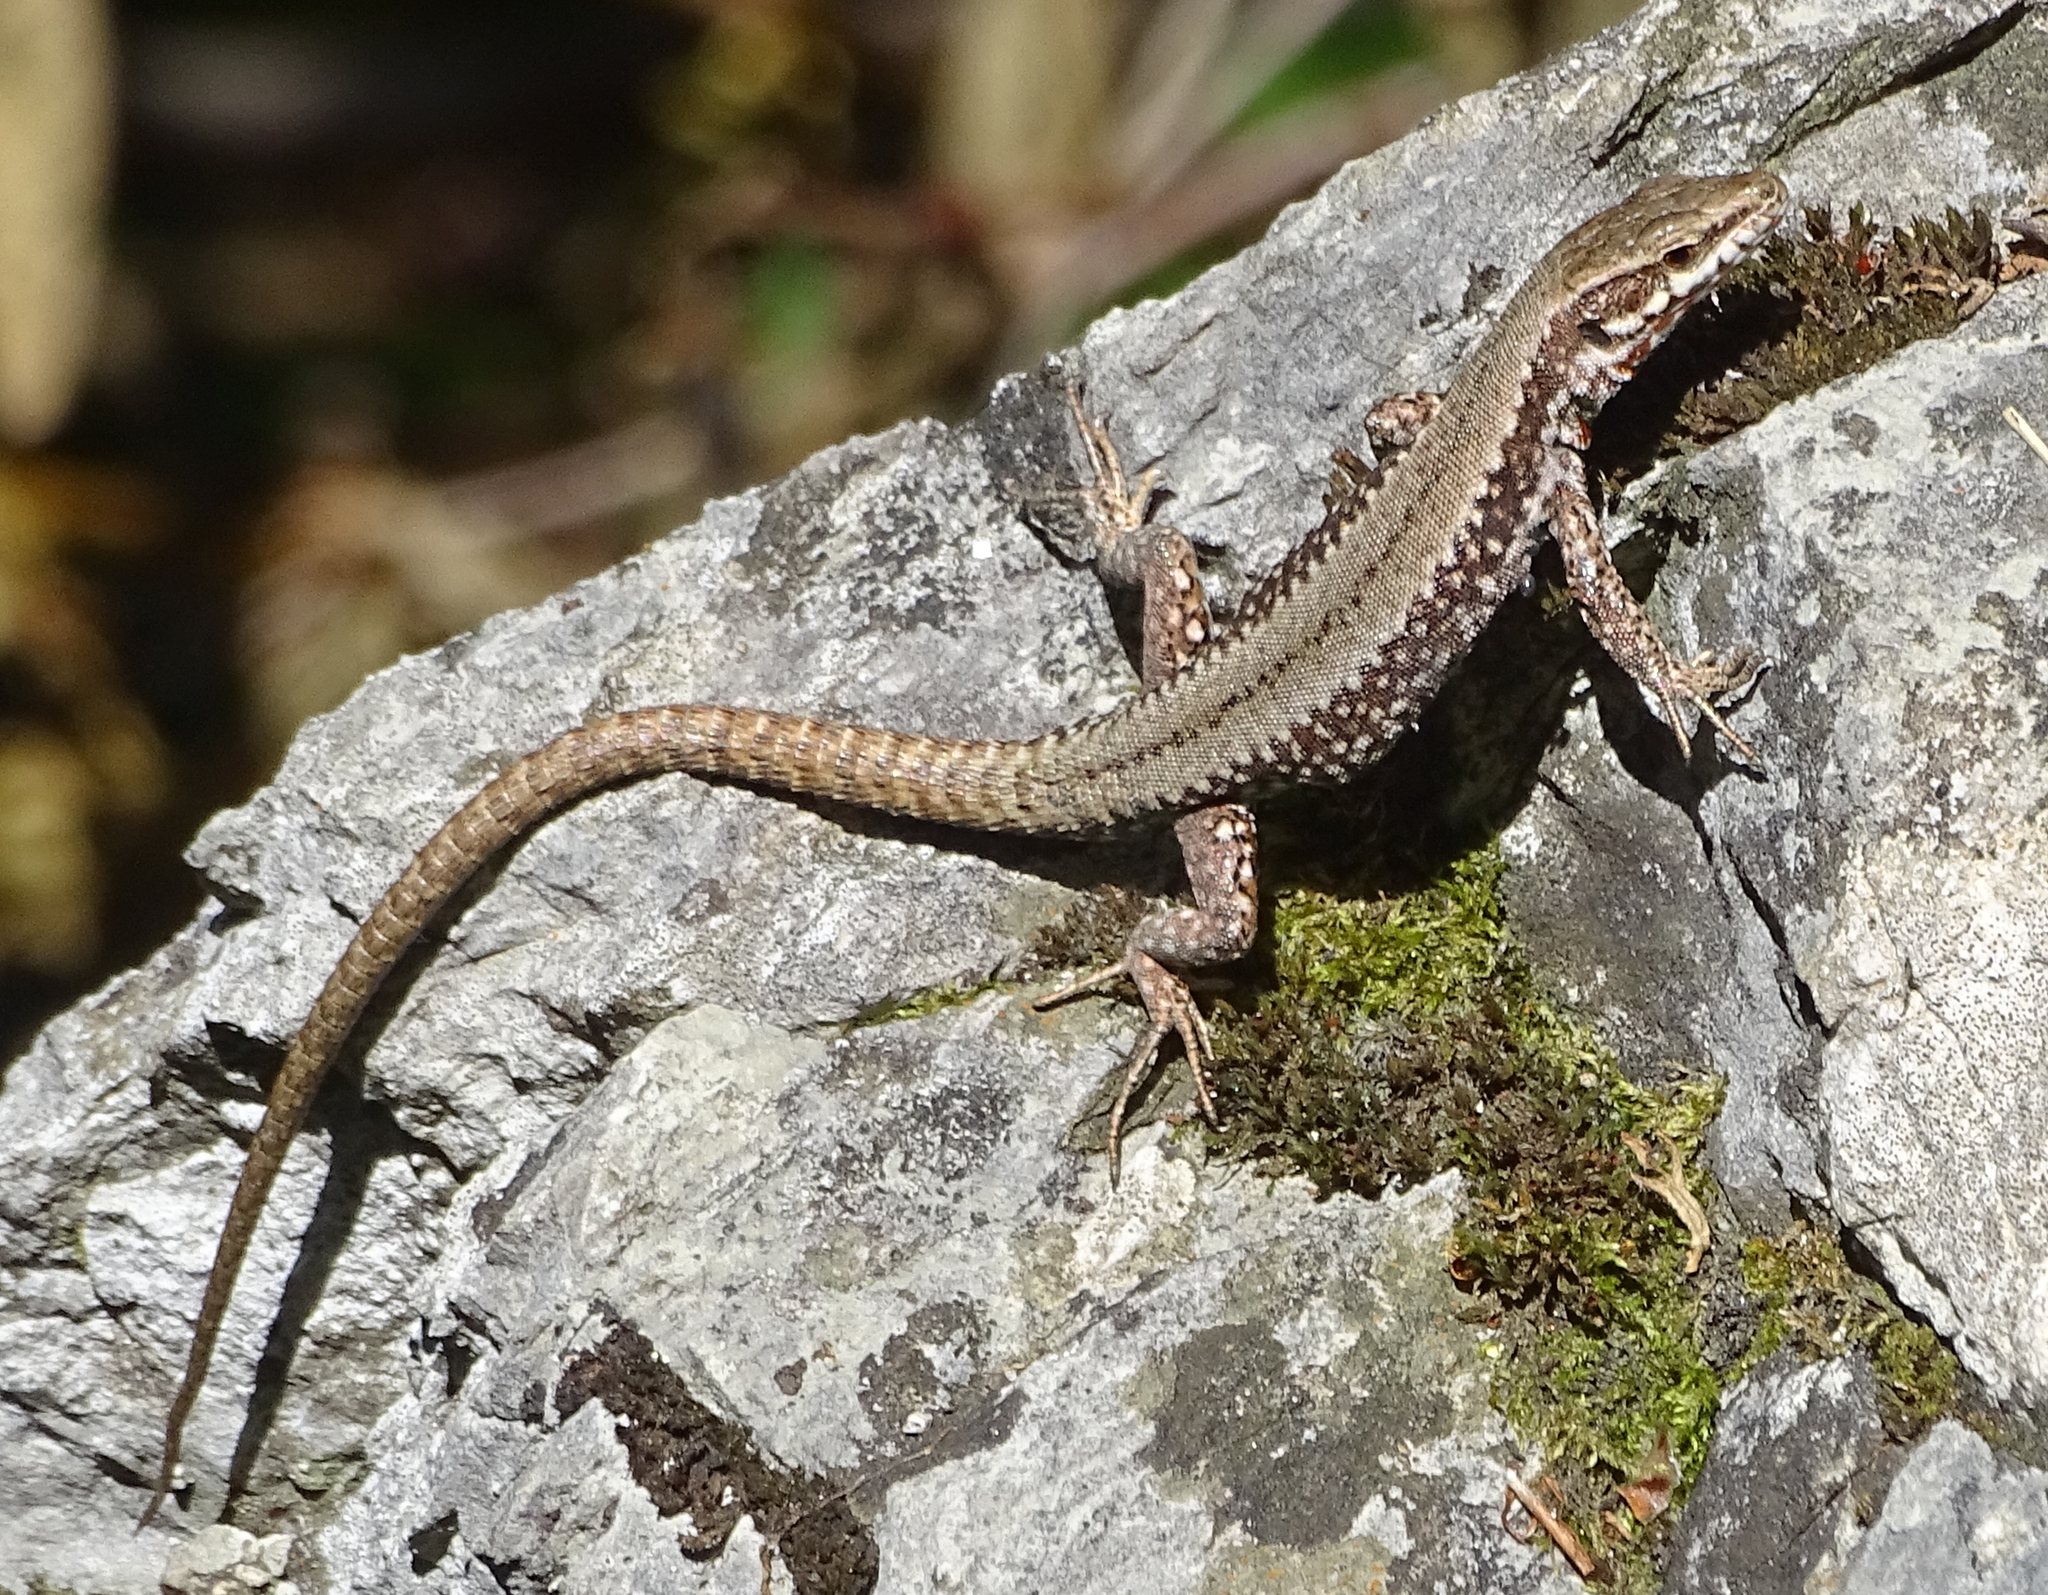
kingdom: Animalia
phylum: Chordata
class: Squamata
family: Lacertidae
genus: Podarcis
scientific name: Podarcis muralis
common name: Common wall lizard
